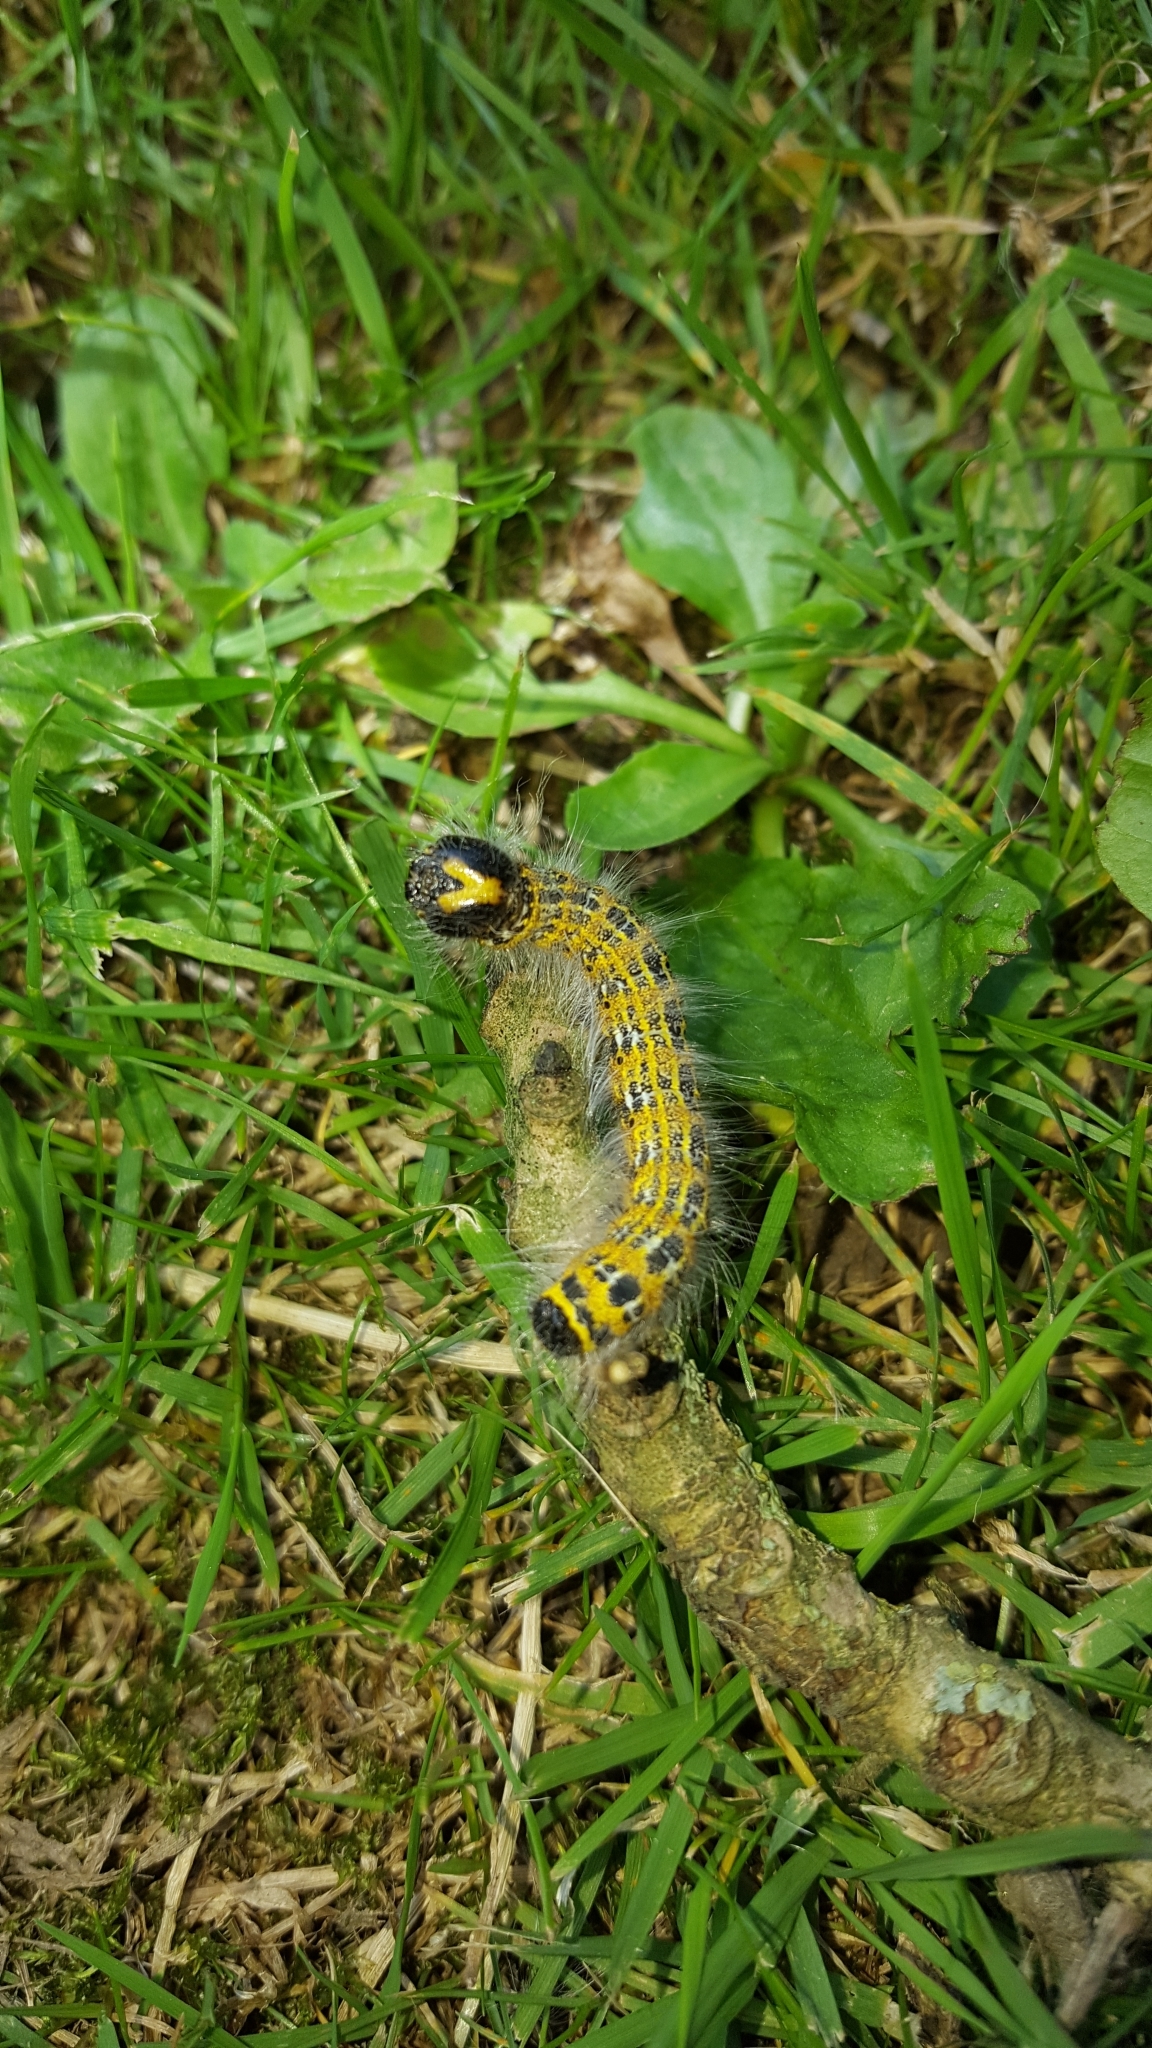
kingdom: Animalia
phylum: Arthropoda
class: Insecta
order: Lepidoptera
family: Notodontidae
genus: Phalera
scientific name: Phalera bucephala
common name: Buff-tip
